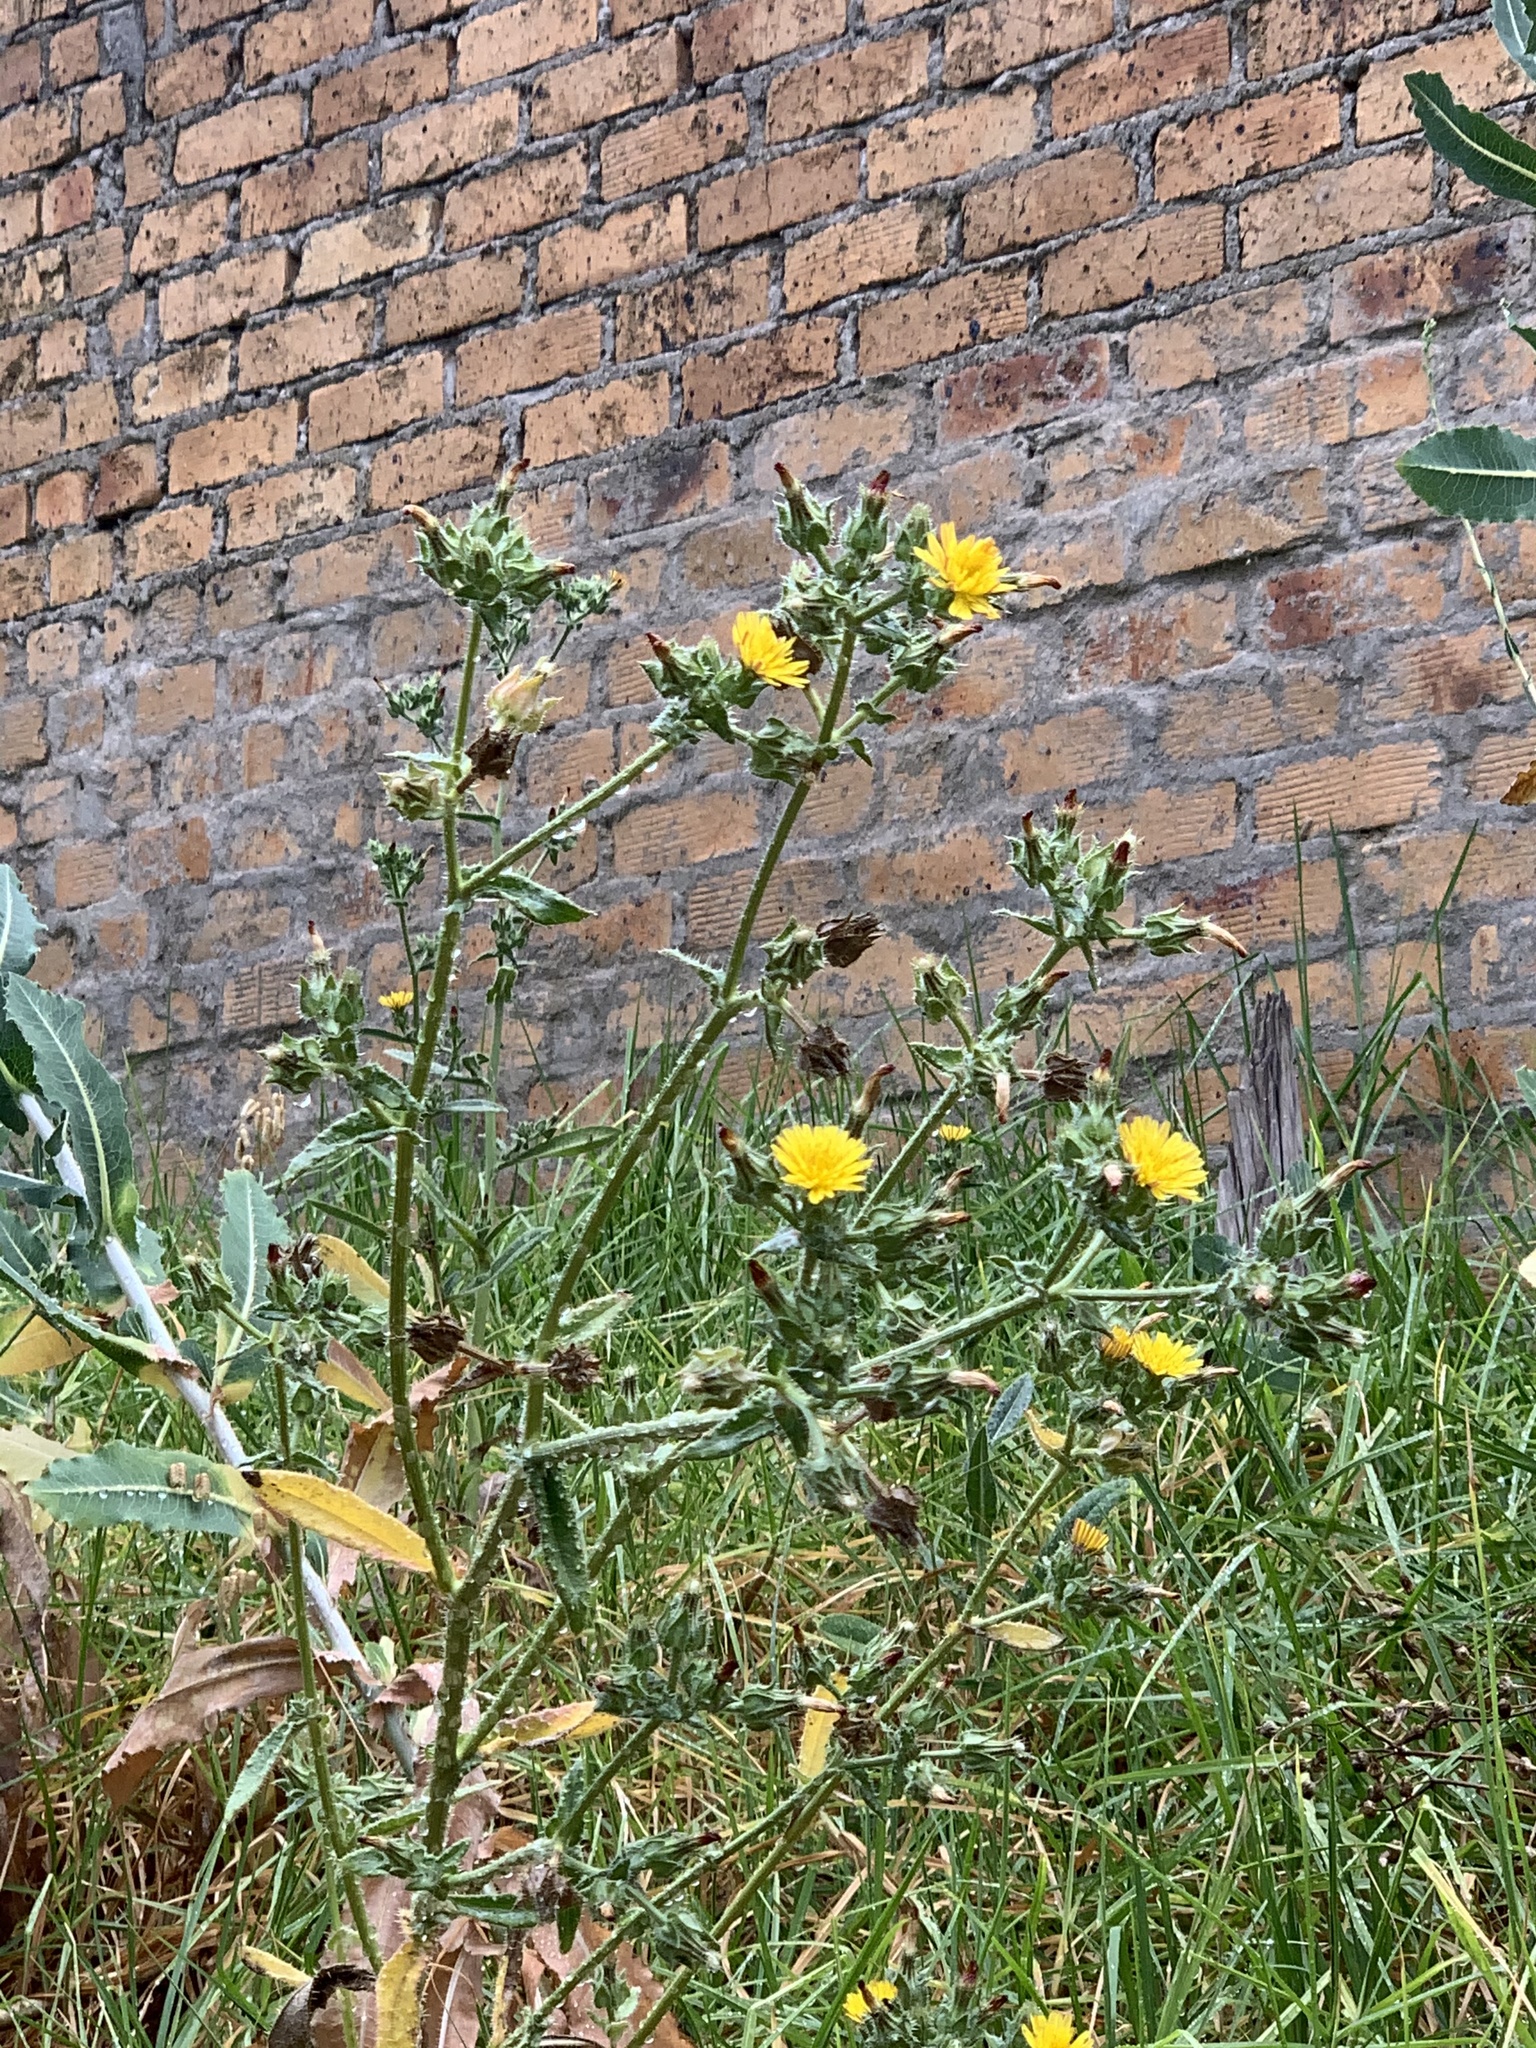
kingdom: Plantae
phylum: Tracheophyta
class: Magnoliopsida
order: Asterales
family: Asteraceae
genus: Helminthotheca
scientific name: Helminthotheca echioides
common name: Ox-tongue
